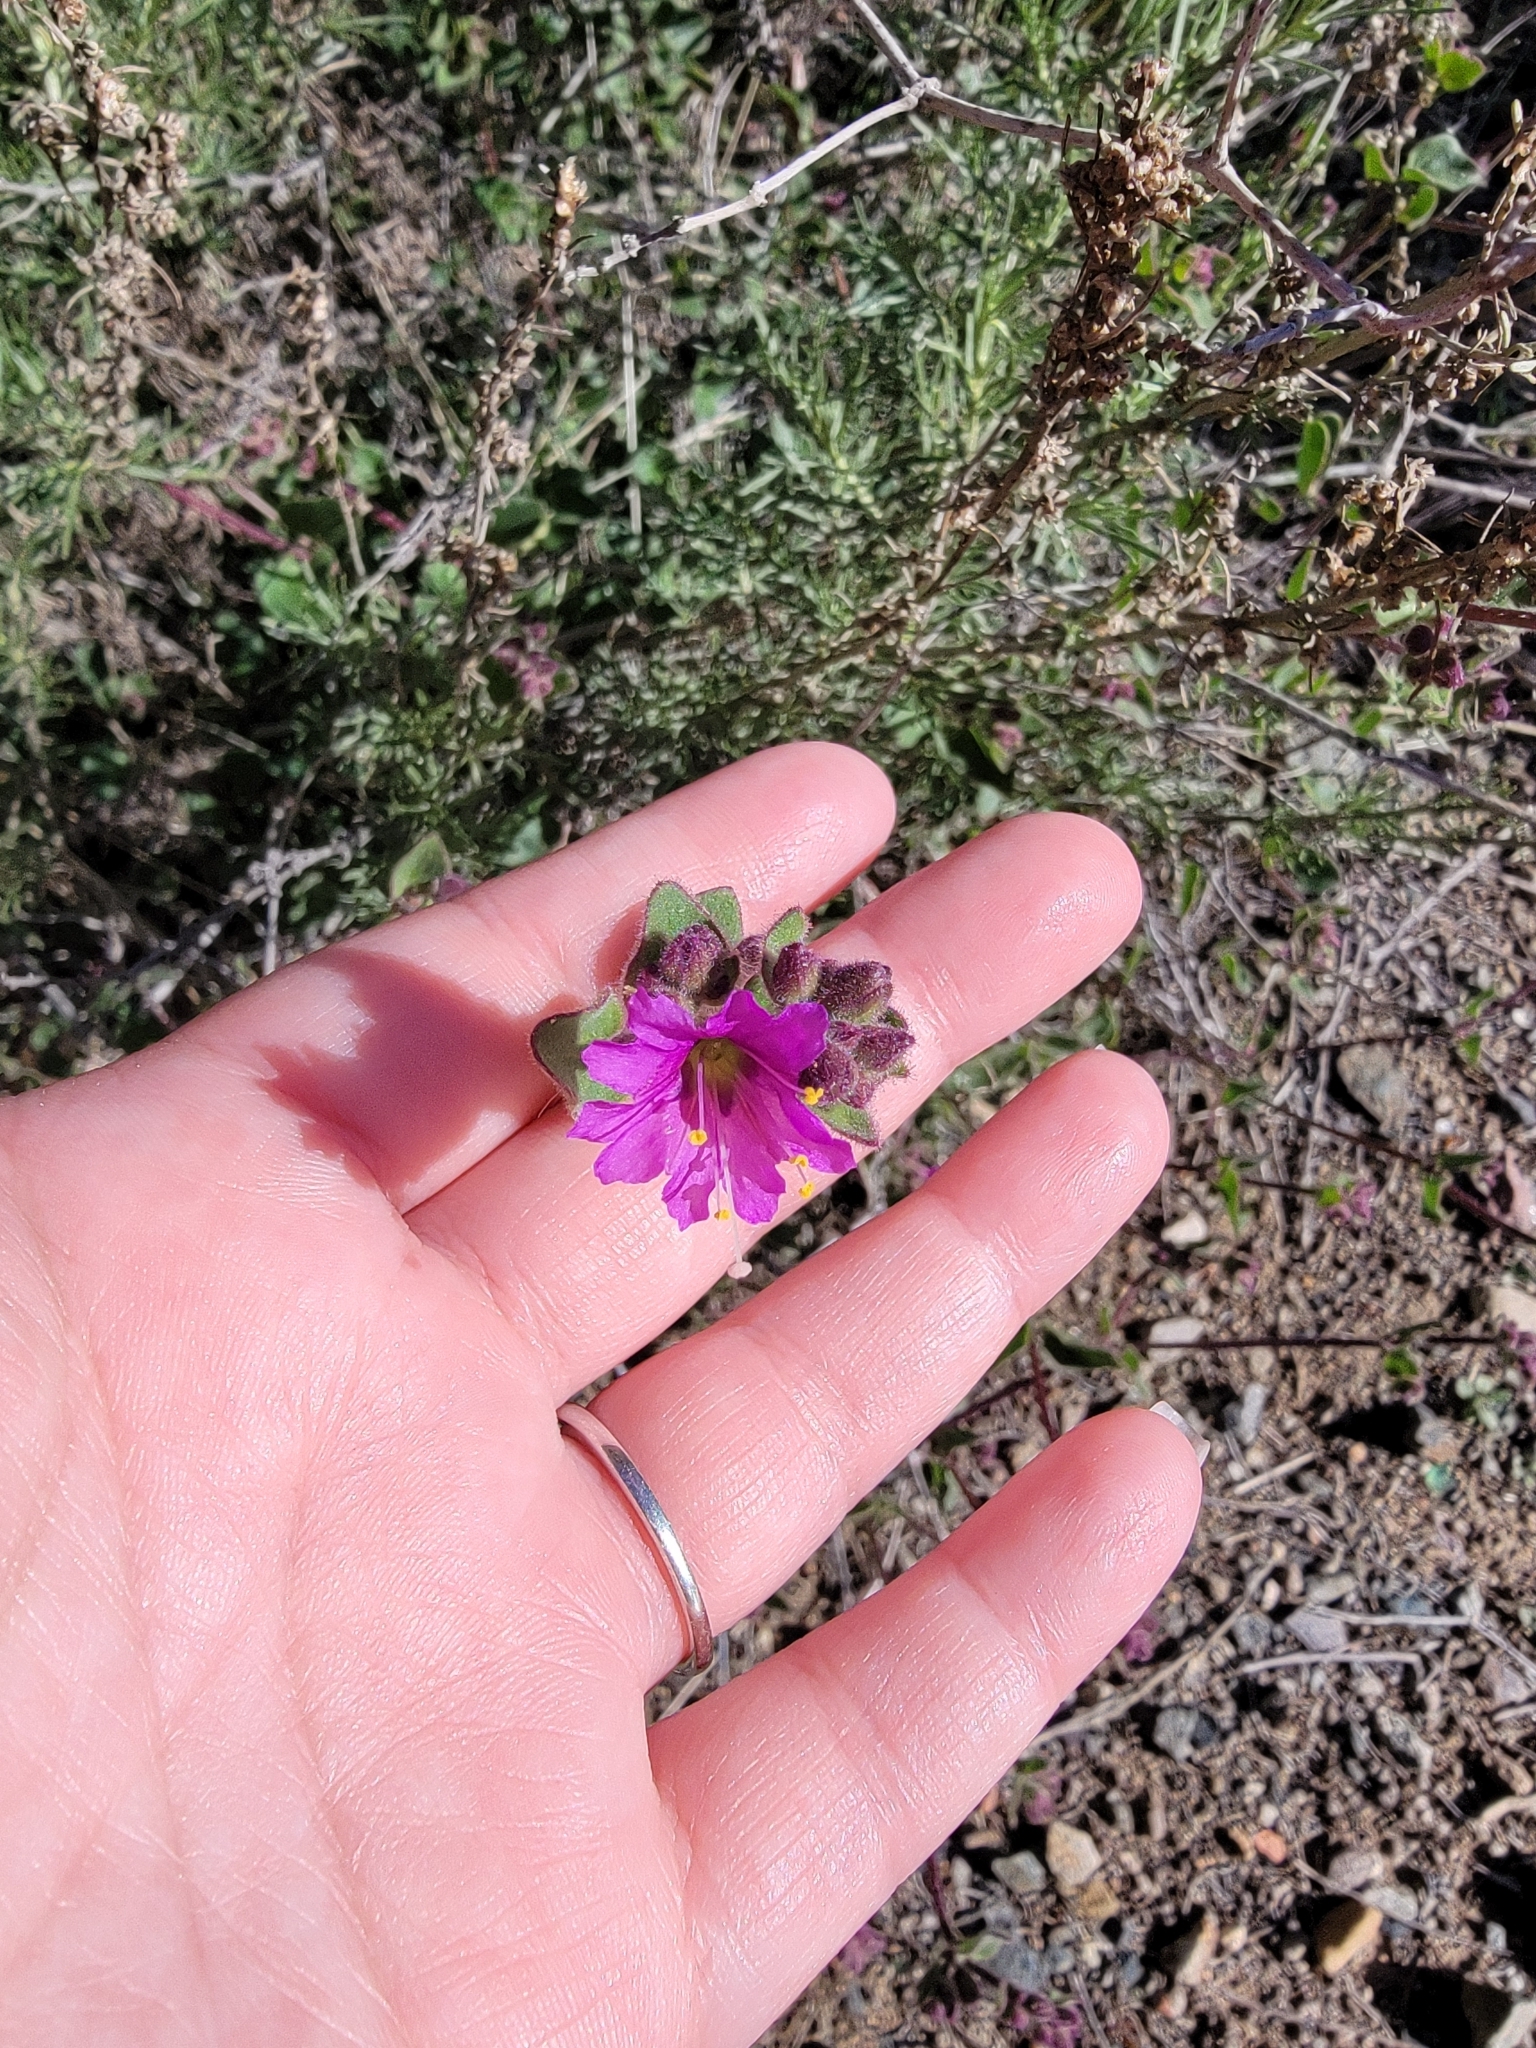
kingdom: Plantae
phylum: Tracheophyta
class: Magnoliopsida
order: Caryophyllales
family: Nyctaginaceae
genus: Mirabilis
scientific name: Mirabilis laevis
